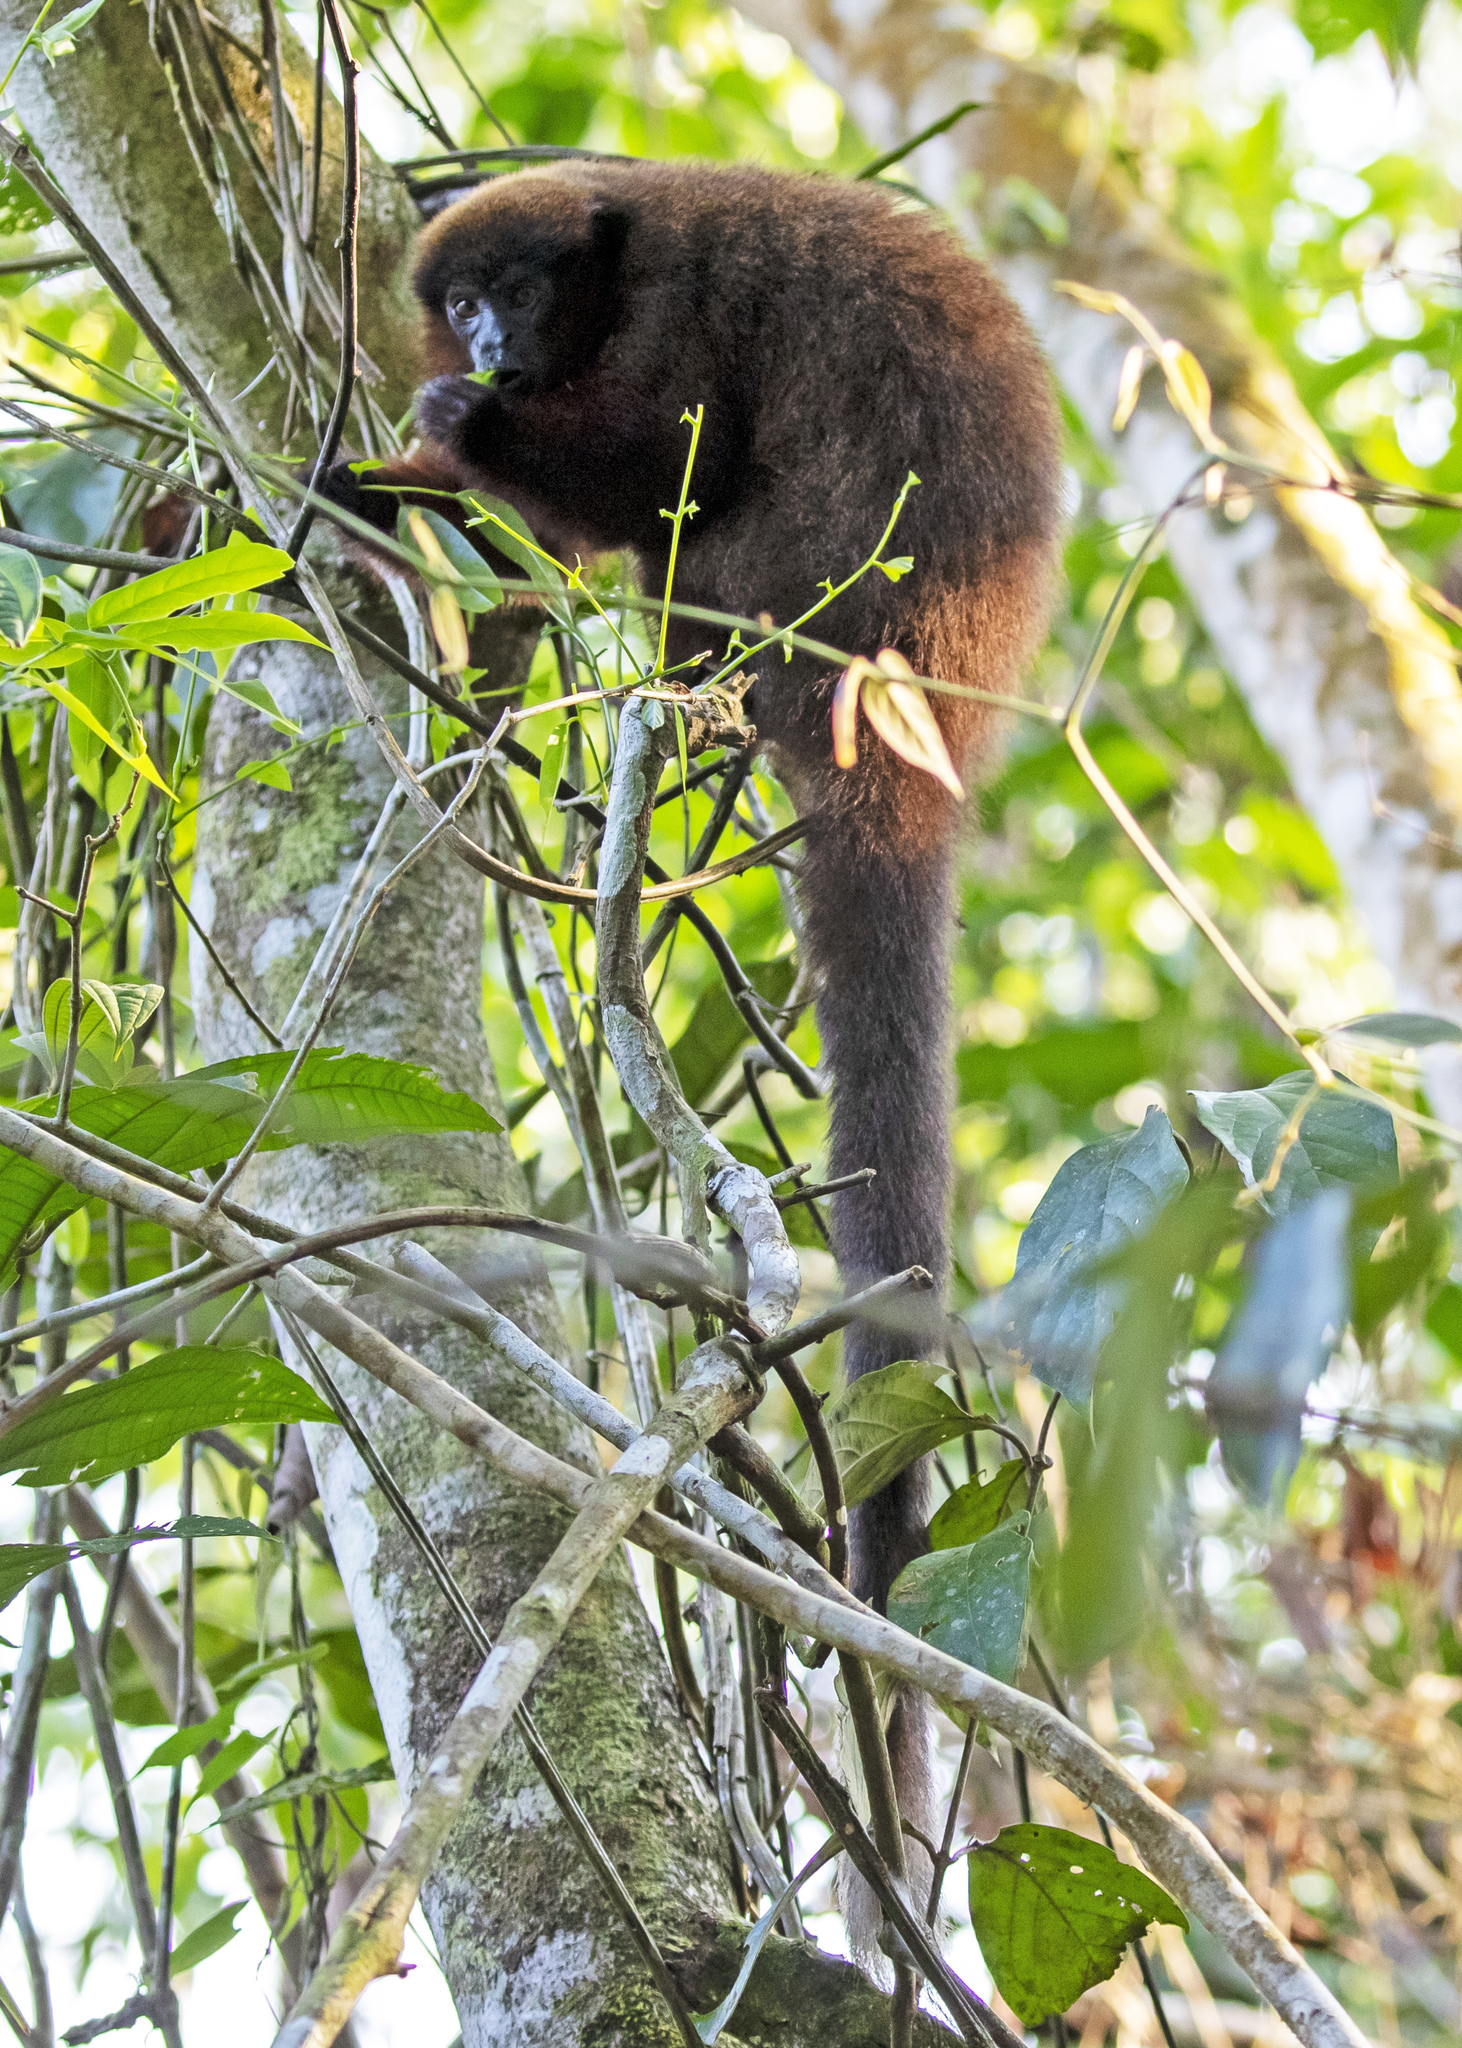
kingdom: Animalia
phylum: Chordata
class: Mammalia
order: Primates
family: Pitheciidae
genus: Plecturocebus
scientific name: Plecturocebus toppini
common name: Toppin's titi
